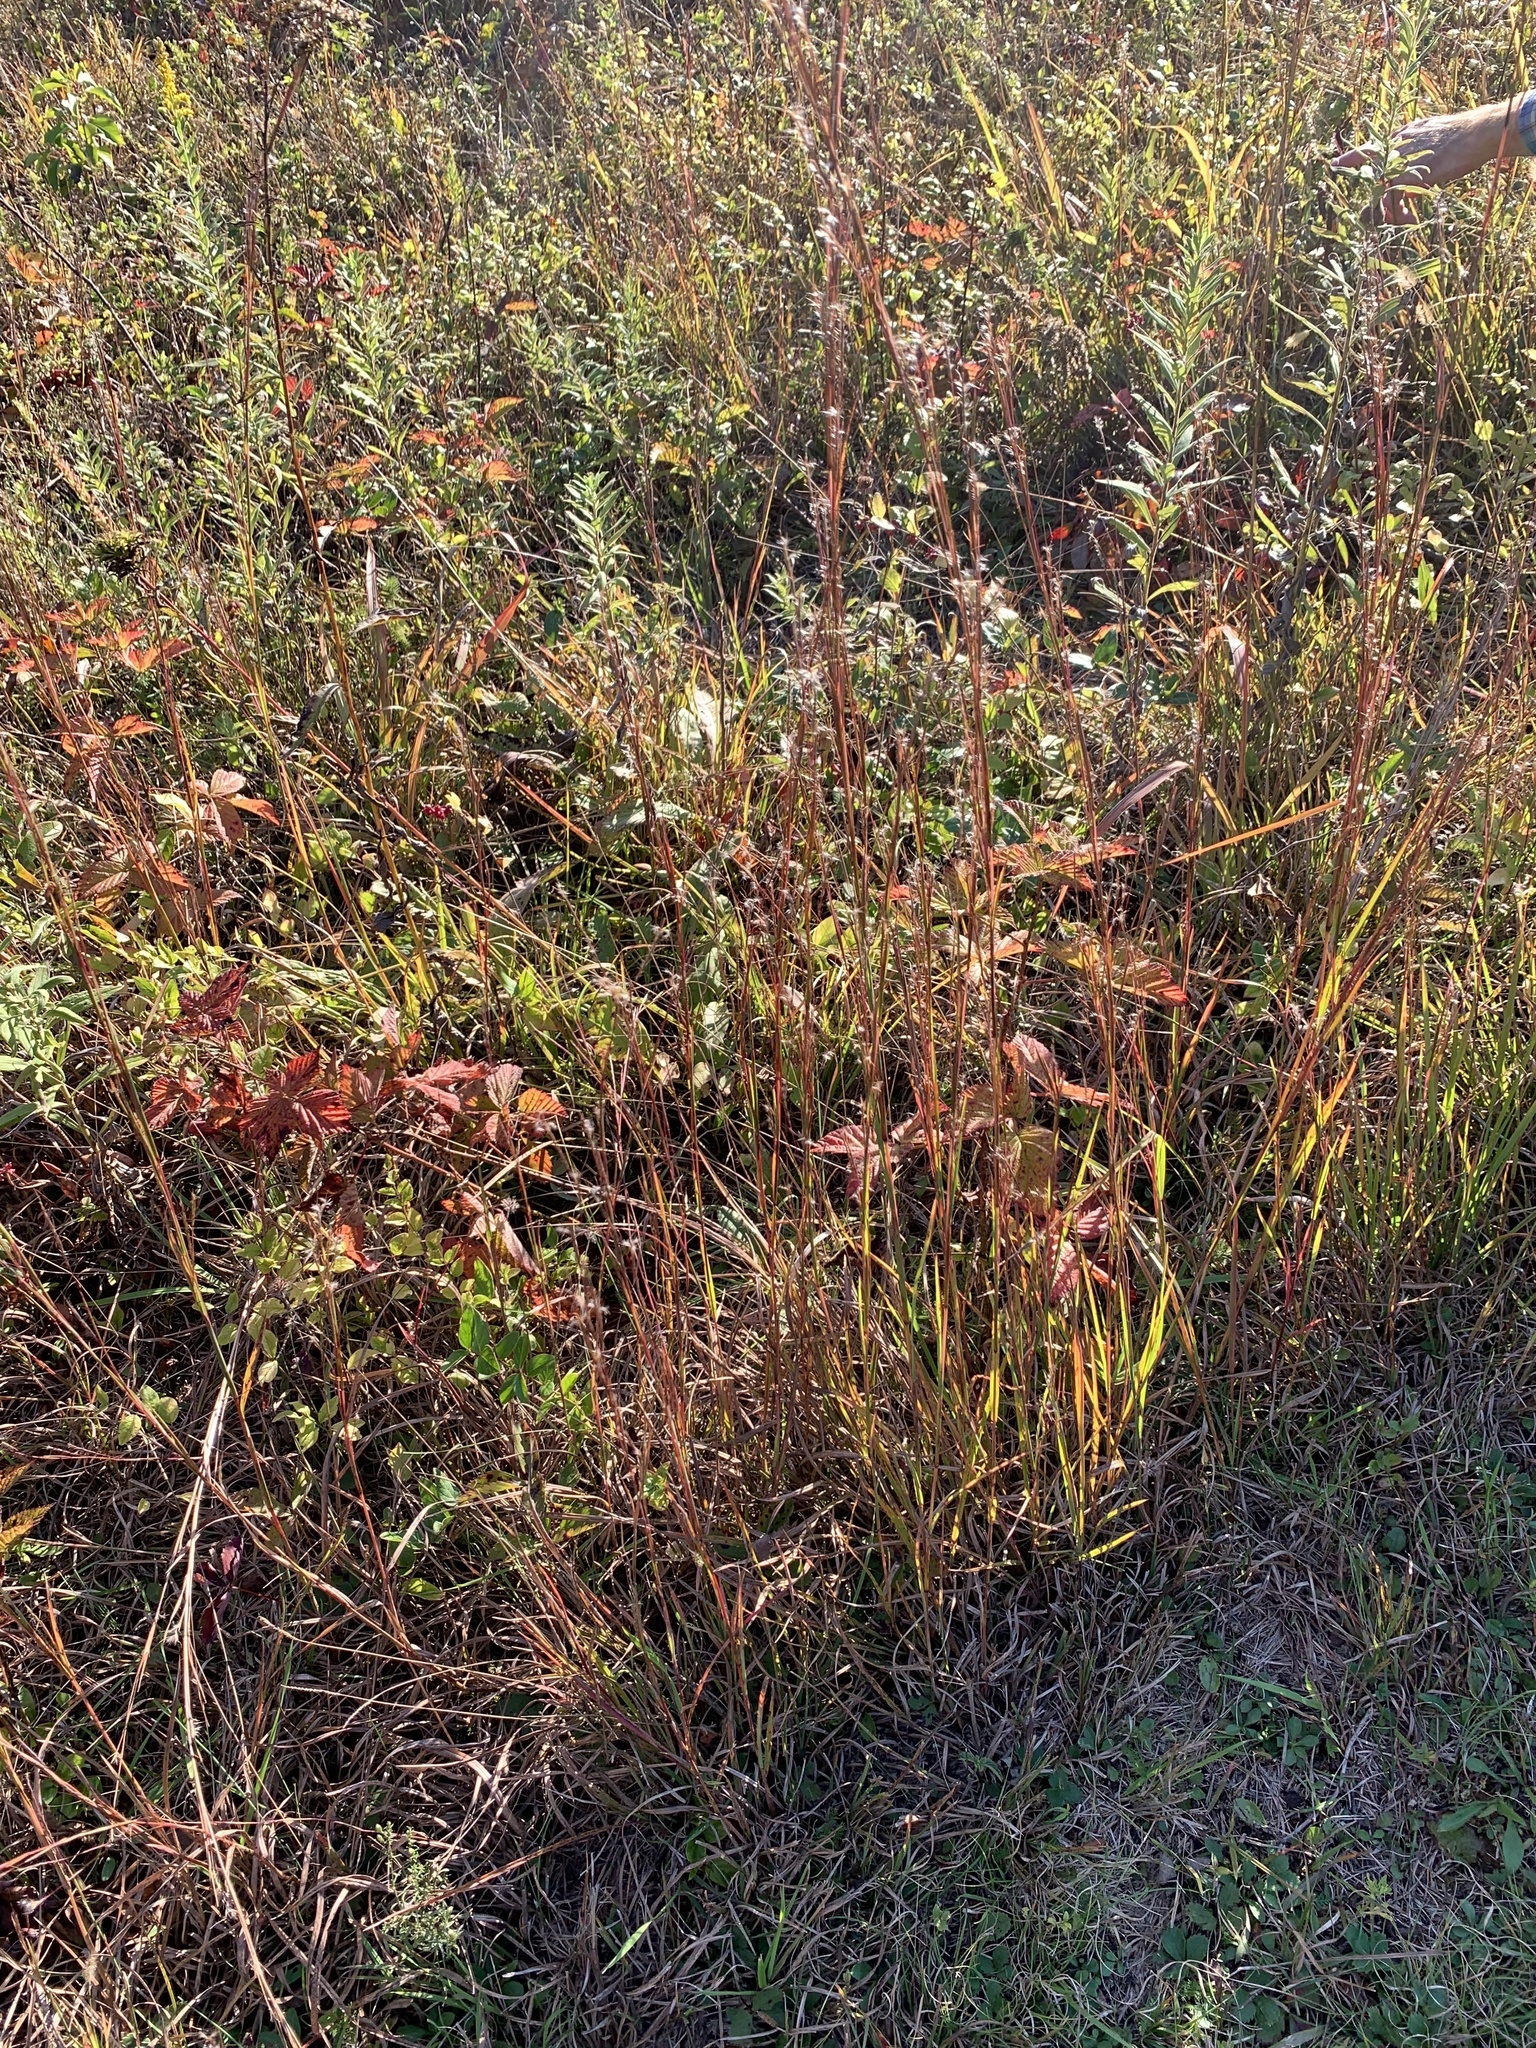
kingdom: Plantae
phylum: Tracheophyta
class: Liliopsida
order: Poales
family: Poaceae
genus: Schizachyrium
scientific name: Schizachyrium scoparium
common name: Little bluestem
